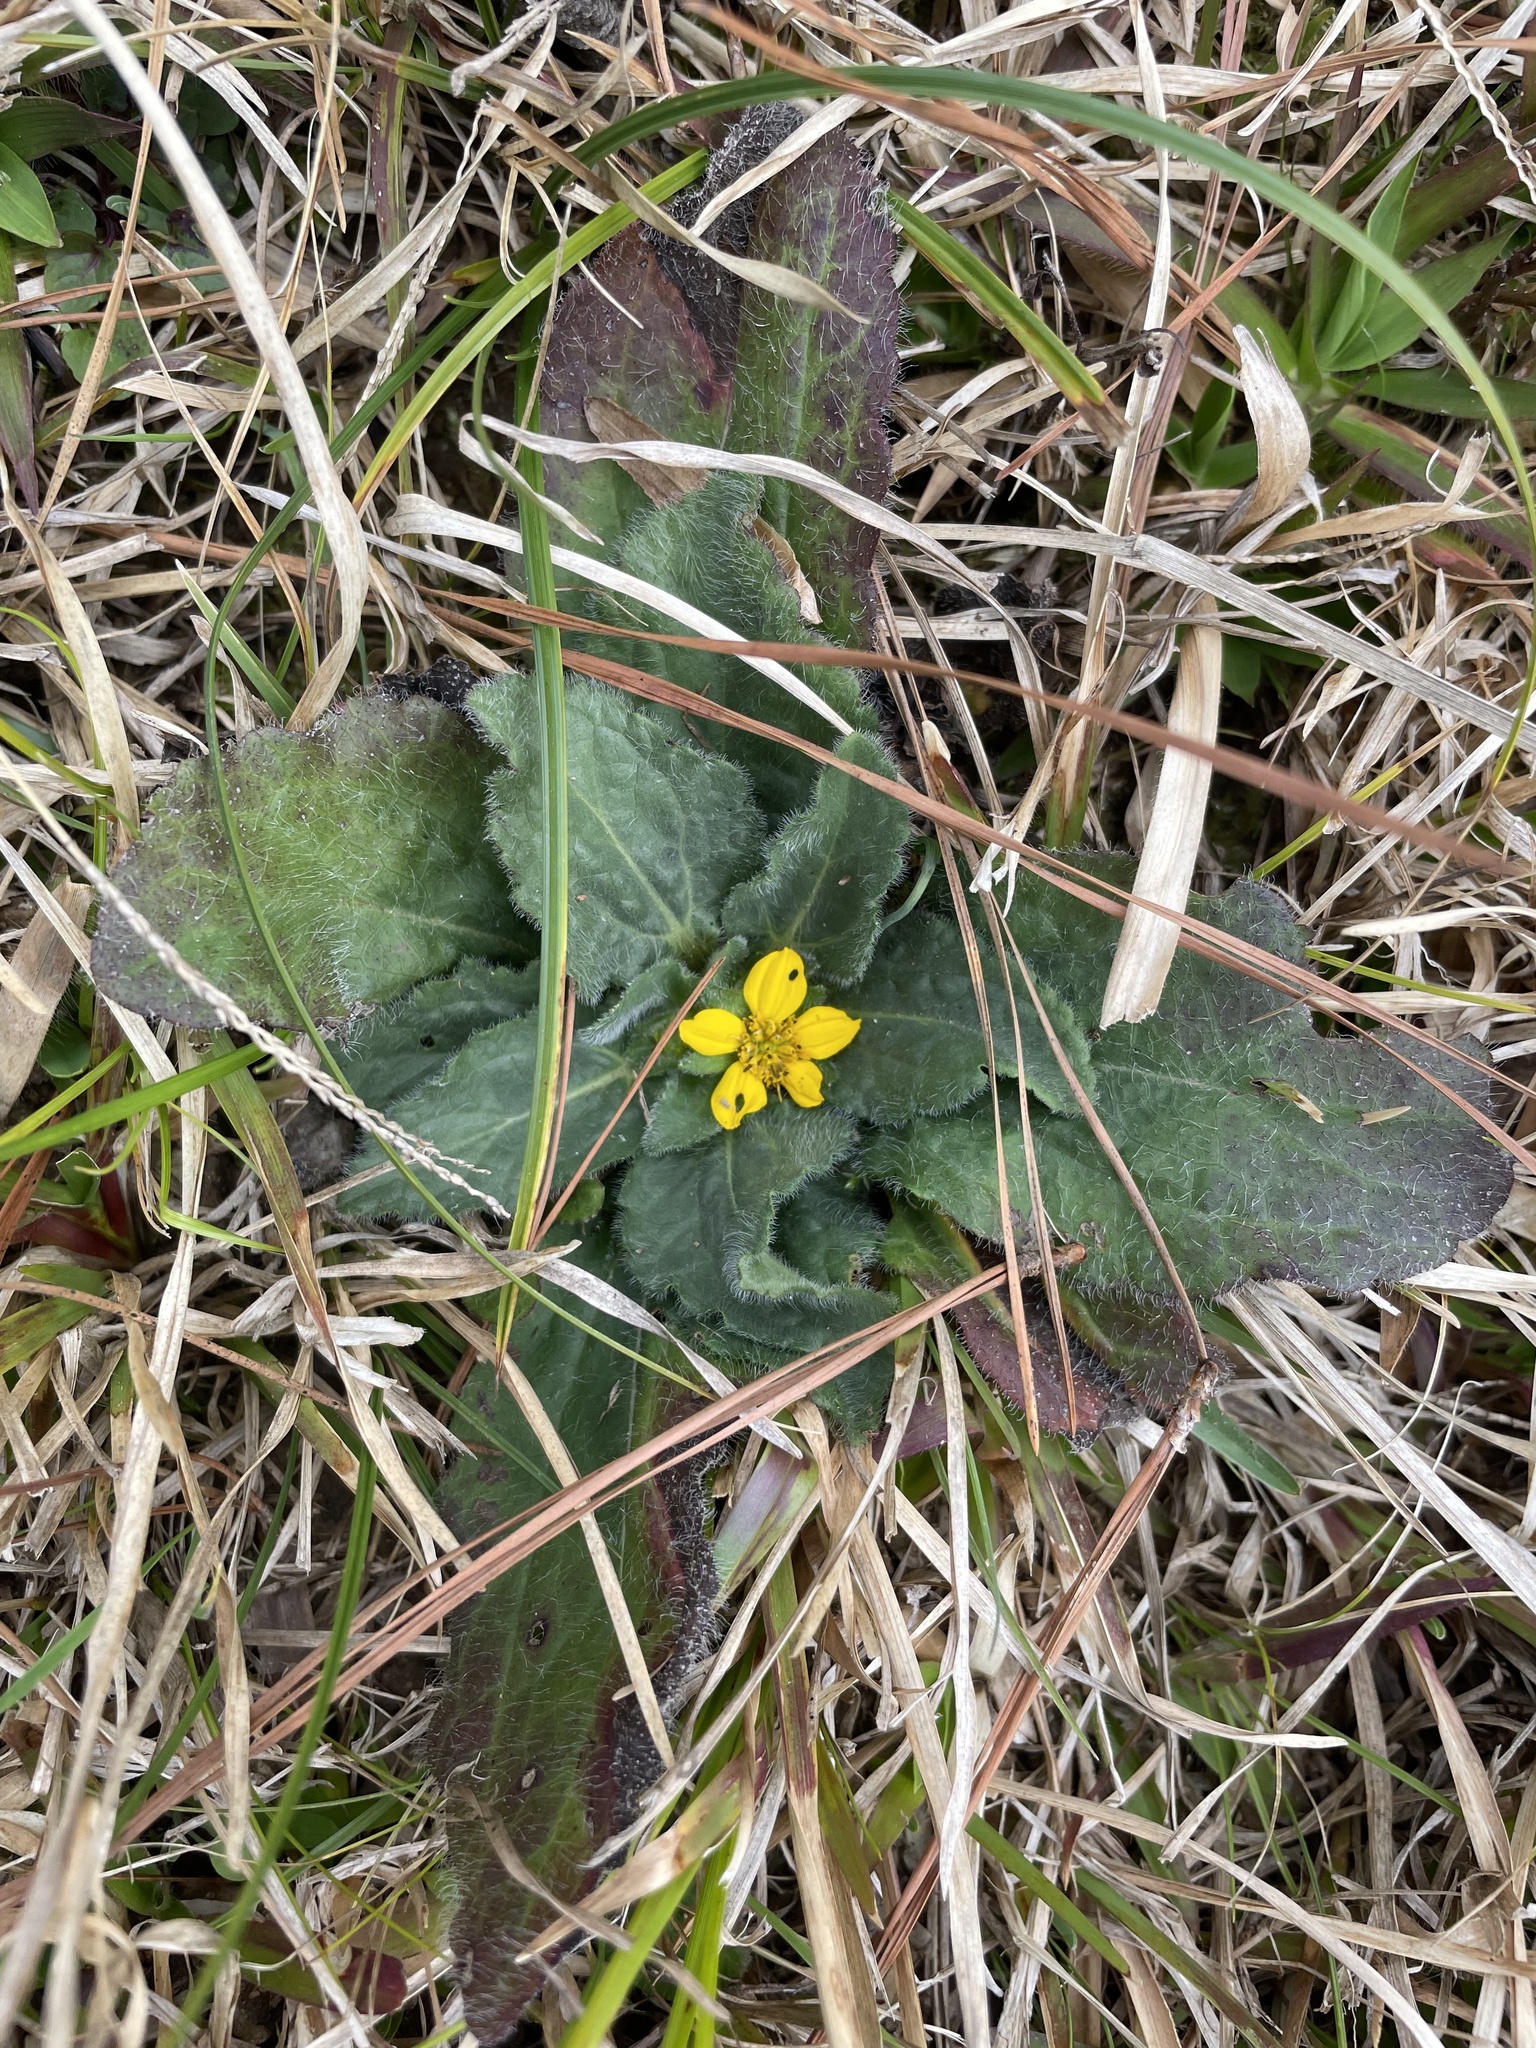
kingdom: Plantae
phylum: Tracheophyta
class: Magnoliopsida
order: Asterales
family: Asteraceae
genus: Chrysogonum
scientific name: Chrysogonum virginianum
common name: Golden-knee
